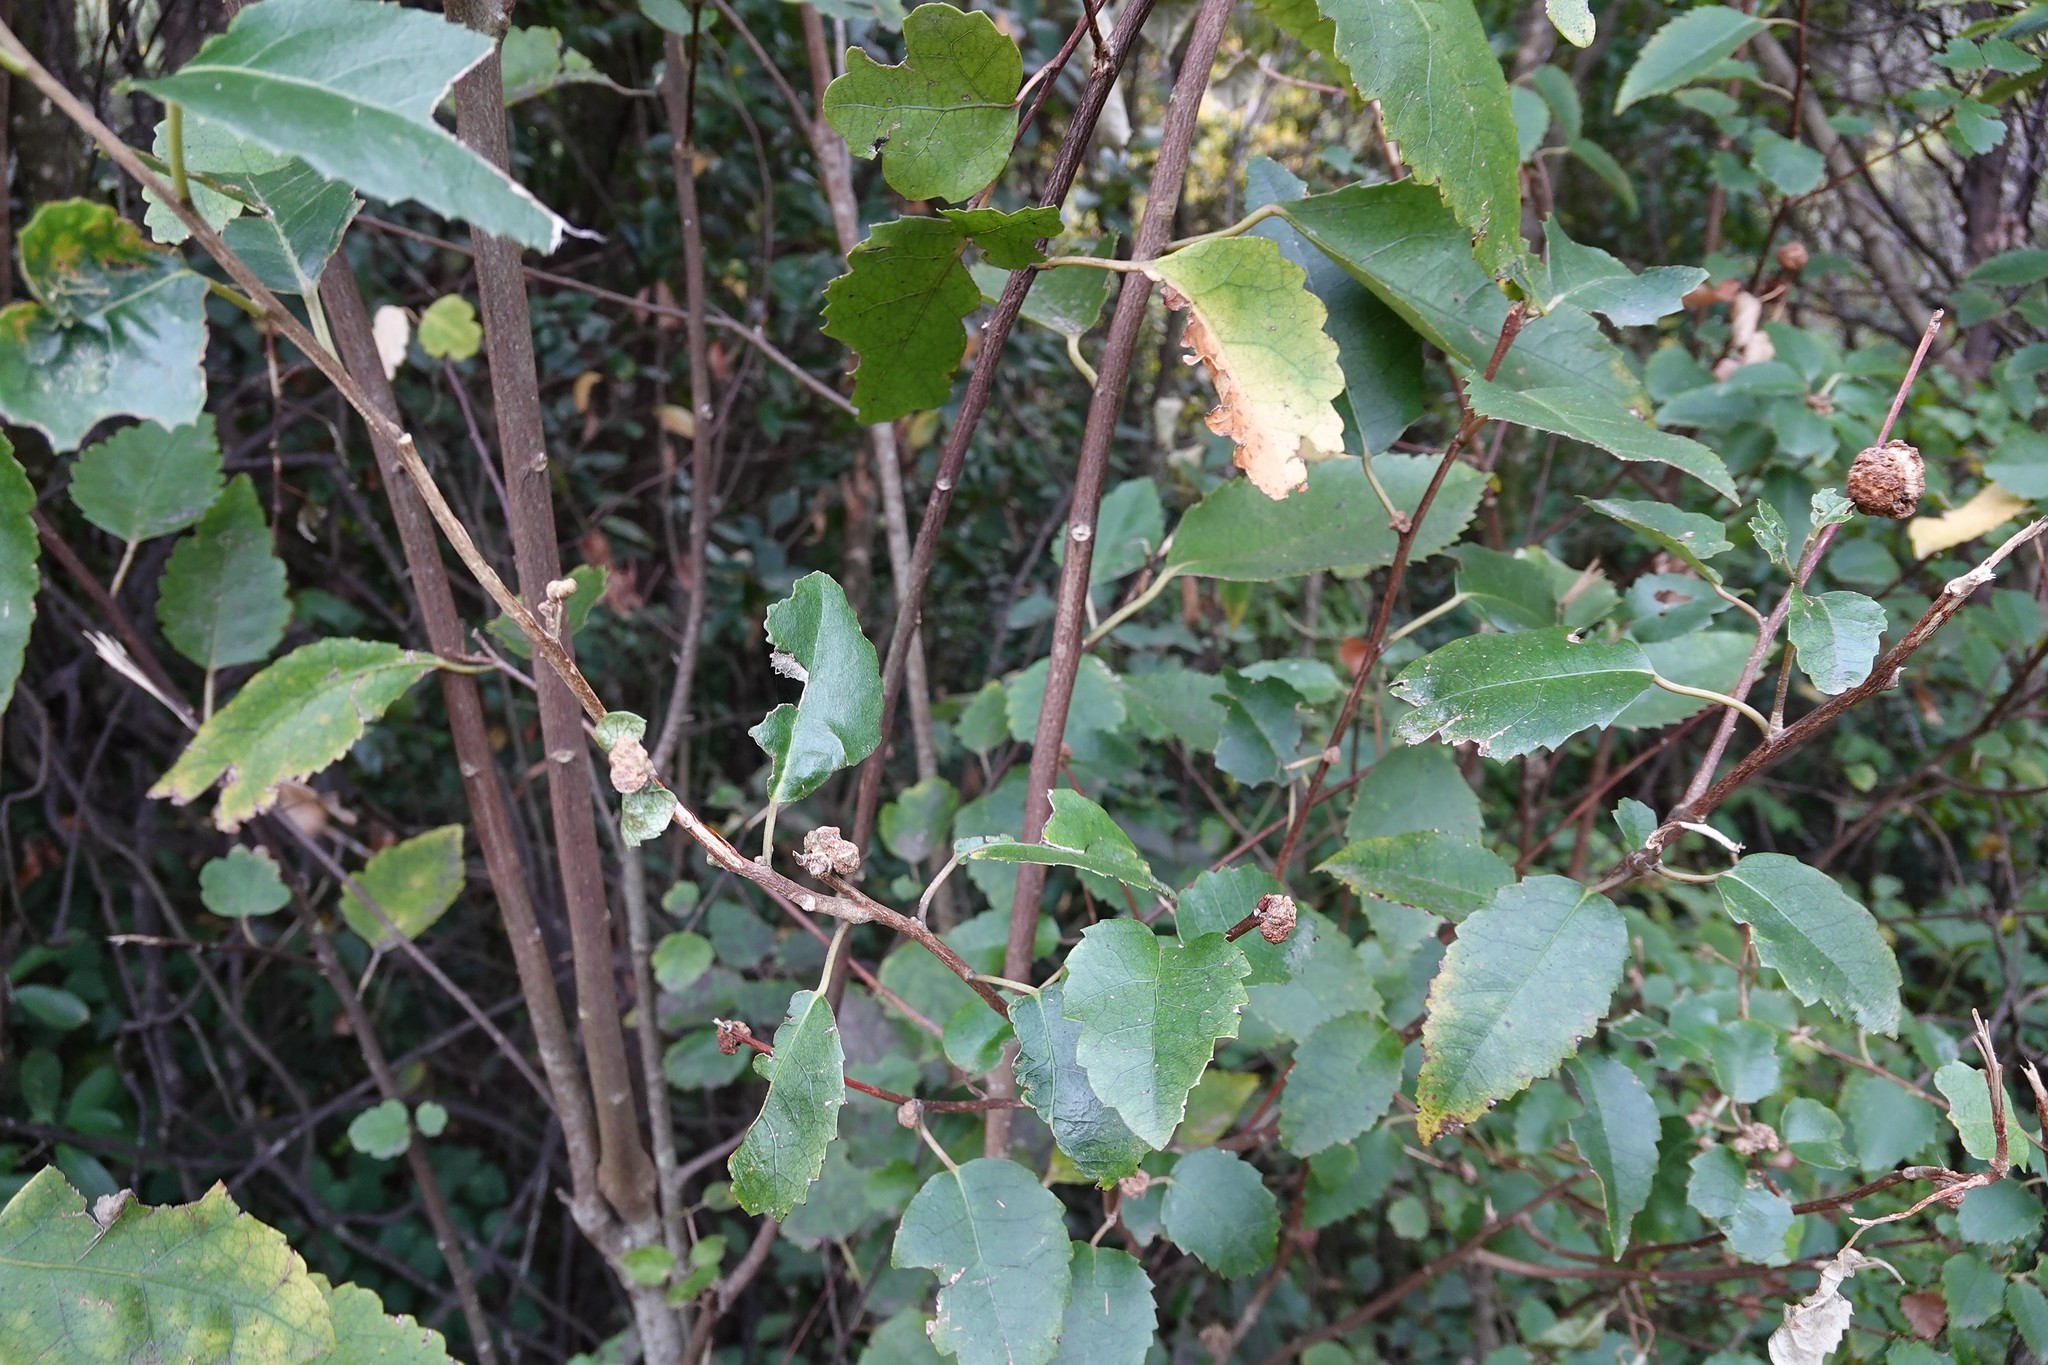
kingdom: Animalia
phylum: Arthropoda
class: Arachnida
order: Trombidiformes
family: Eriophyidae
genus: Eriophyes
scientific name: Eriophyes hoheriae
